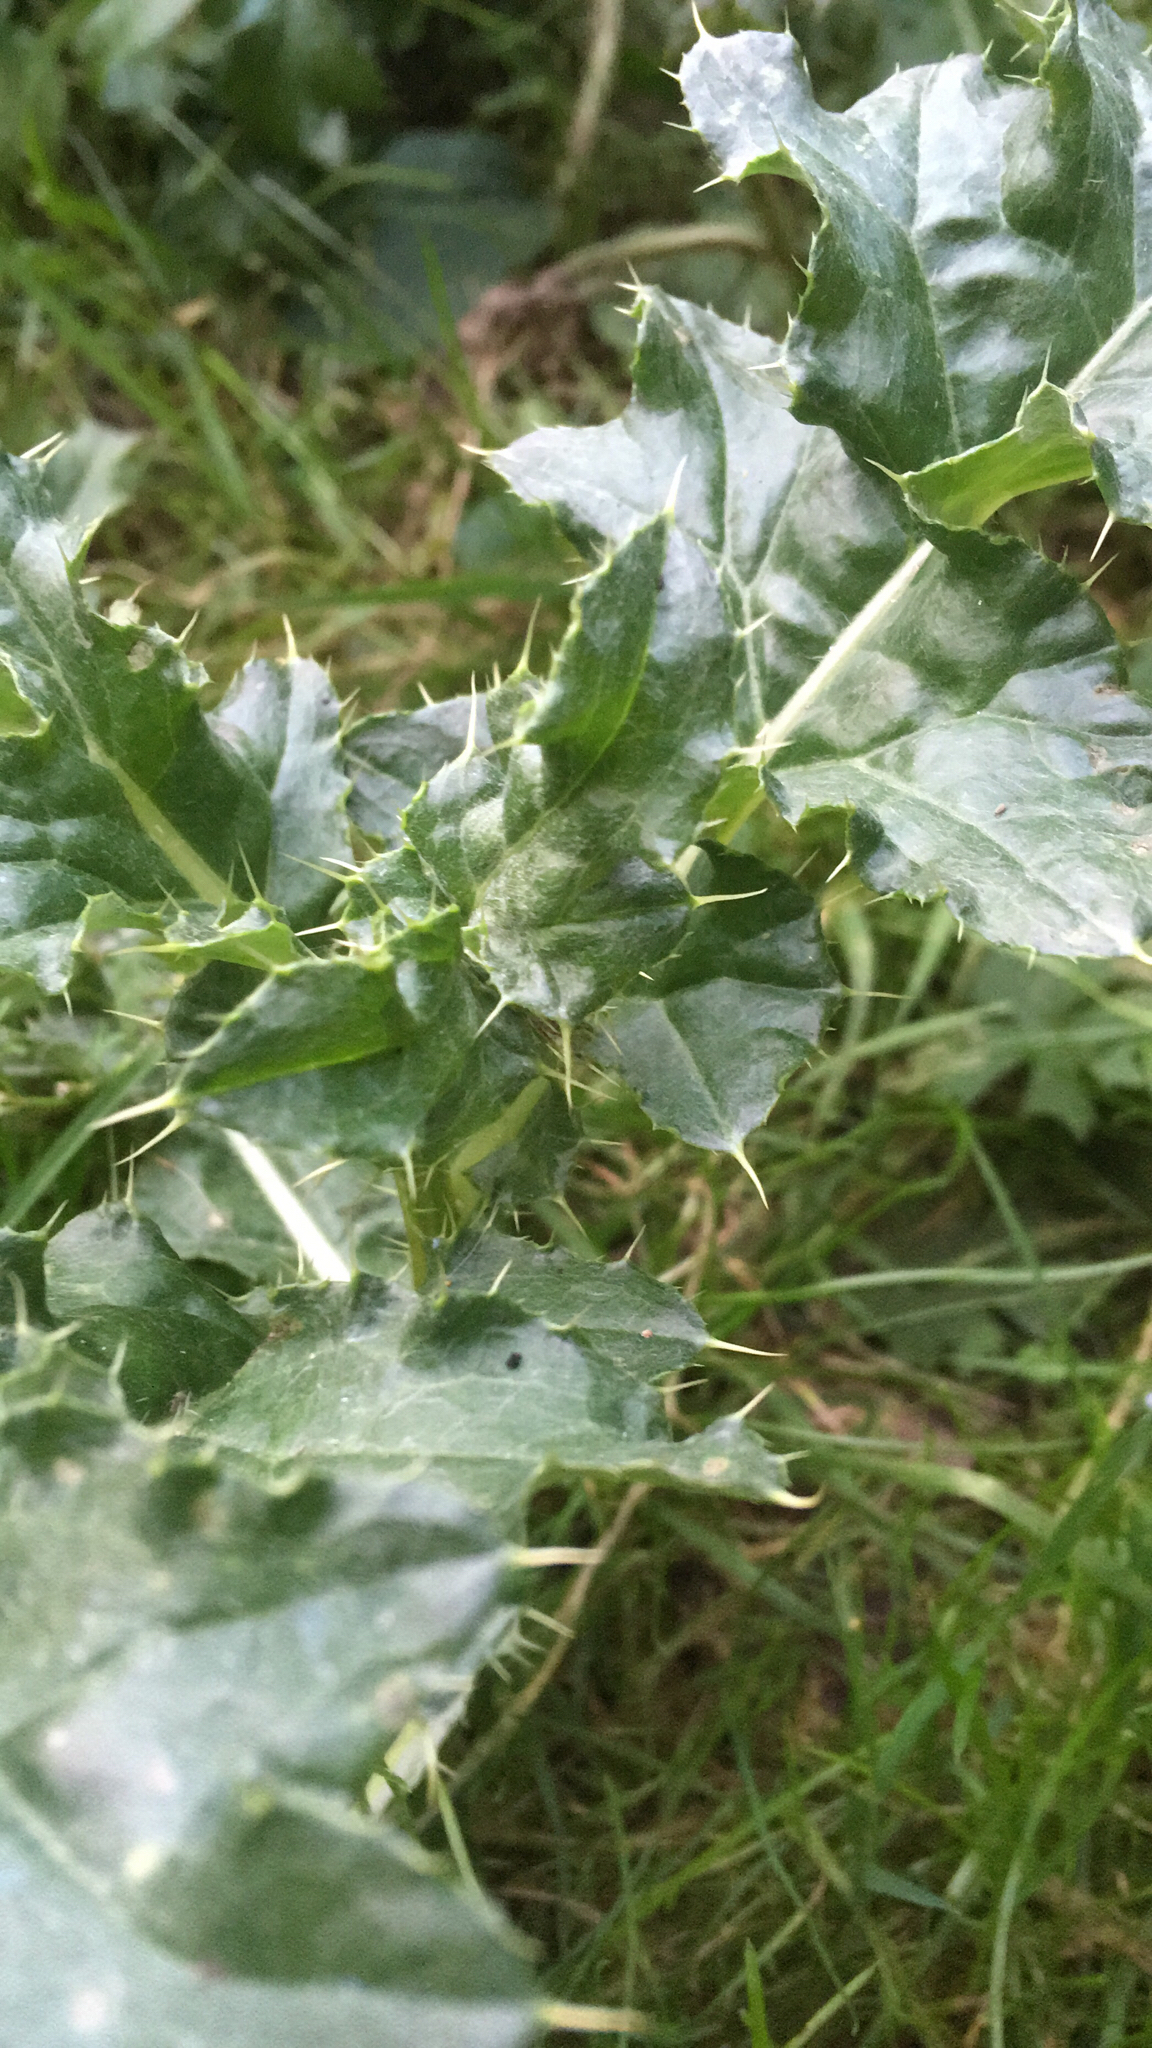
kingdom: Plantae
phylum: Tracheophyta
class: Magnoliopsida
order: Asterales
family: Asteraceae
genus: Cirsium
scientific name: Cirsium arvense
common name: Creeping thistle
